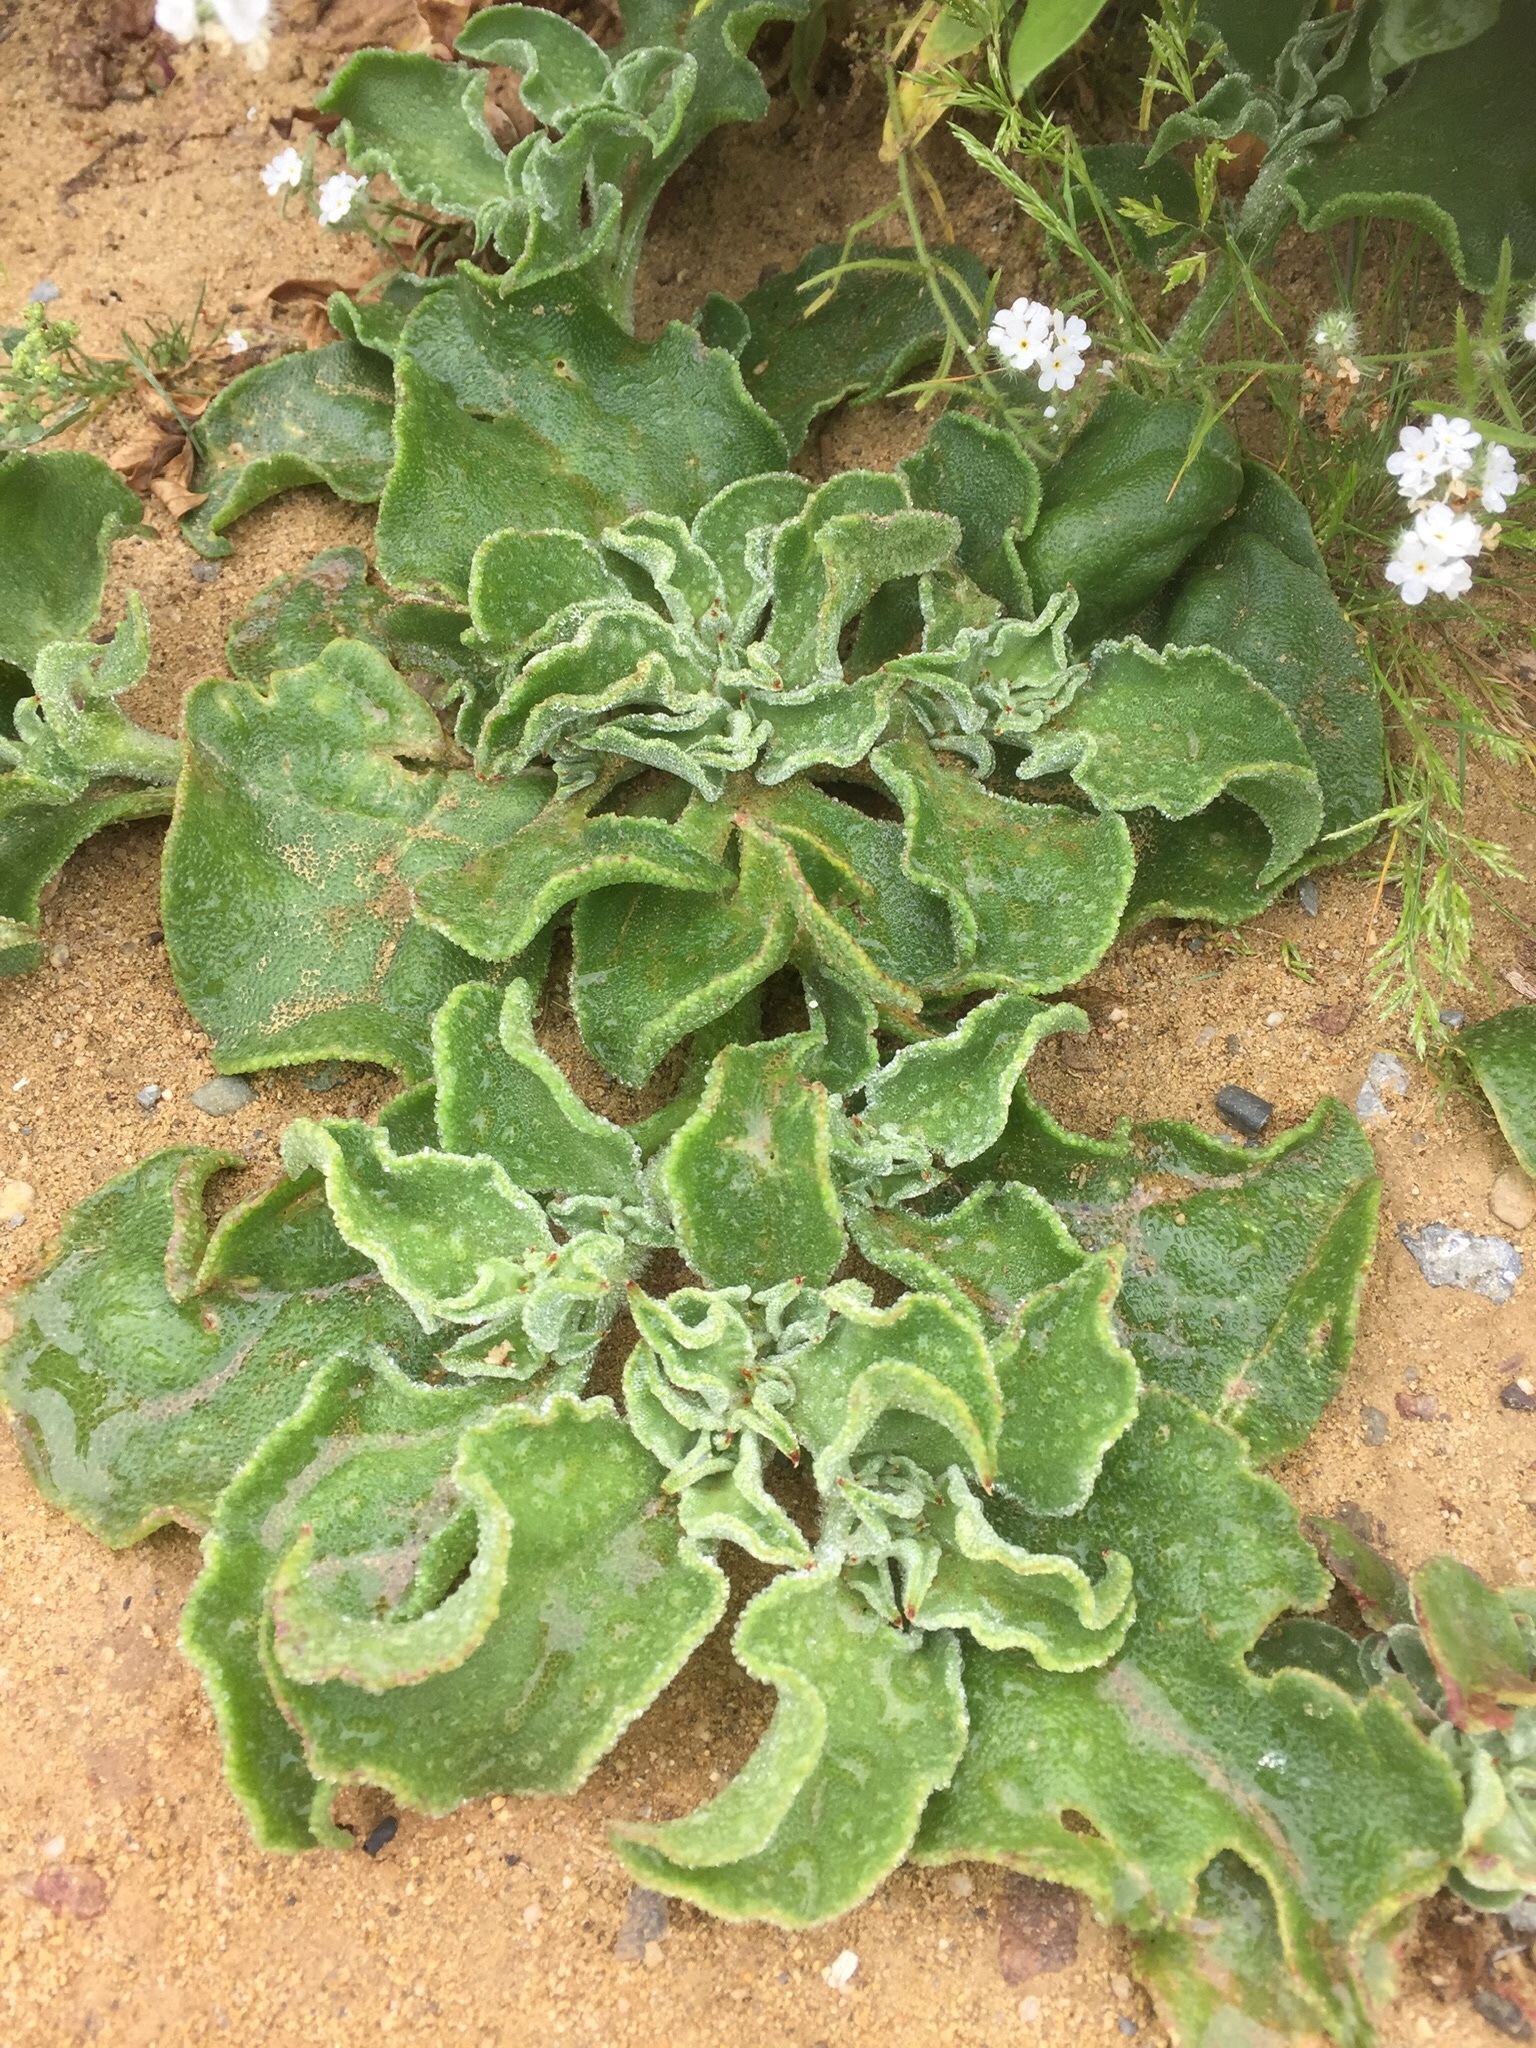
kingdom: Plantae
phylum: Tracheophyta
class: Magnoliopsida
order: Caryophyllales
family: Aizoaceae
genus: Mesembryanthemum
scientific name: Mesembryanthemum crystallinum
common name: Common iceplant
